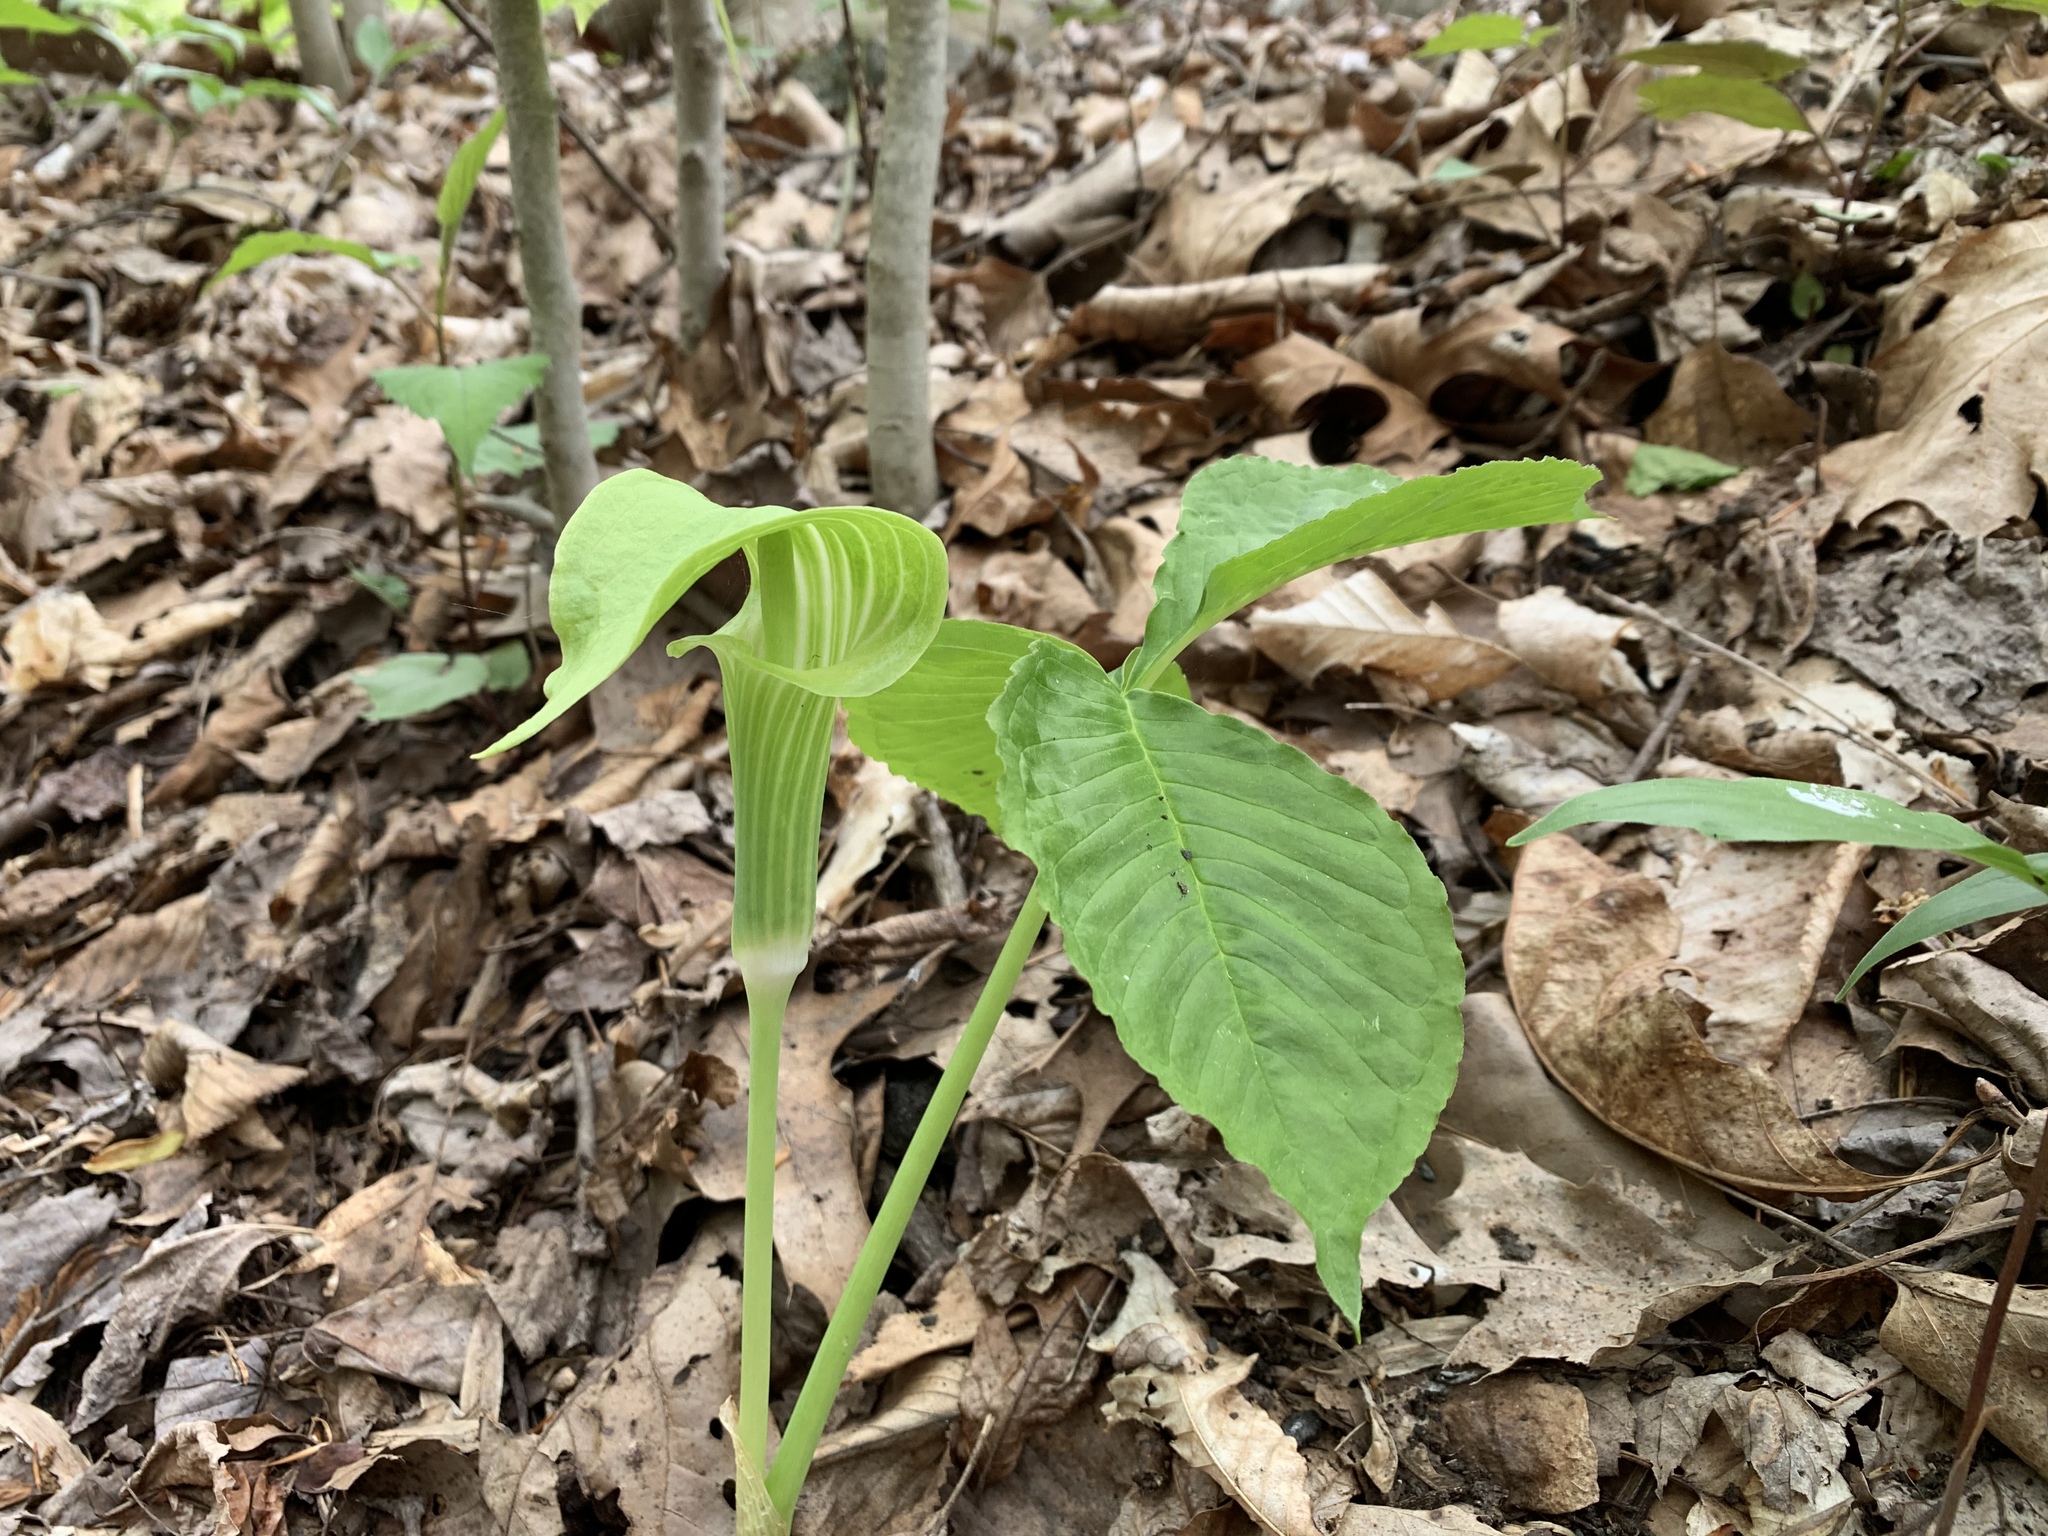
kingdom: Plantae
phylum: Tracheophyta
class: Liliopsida
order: Alismatales
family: Araceae
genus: Arisaema
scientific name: Arisaema triphyllum
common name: Jack-in-the-pulpit
